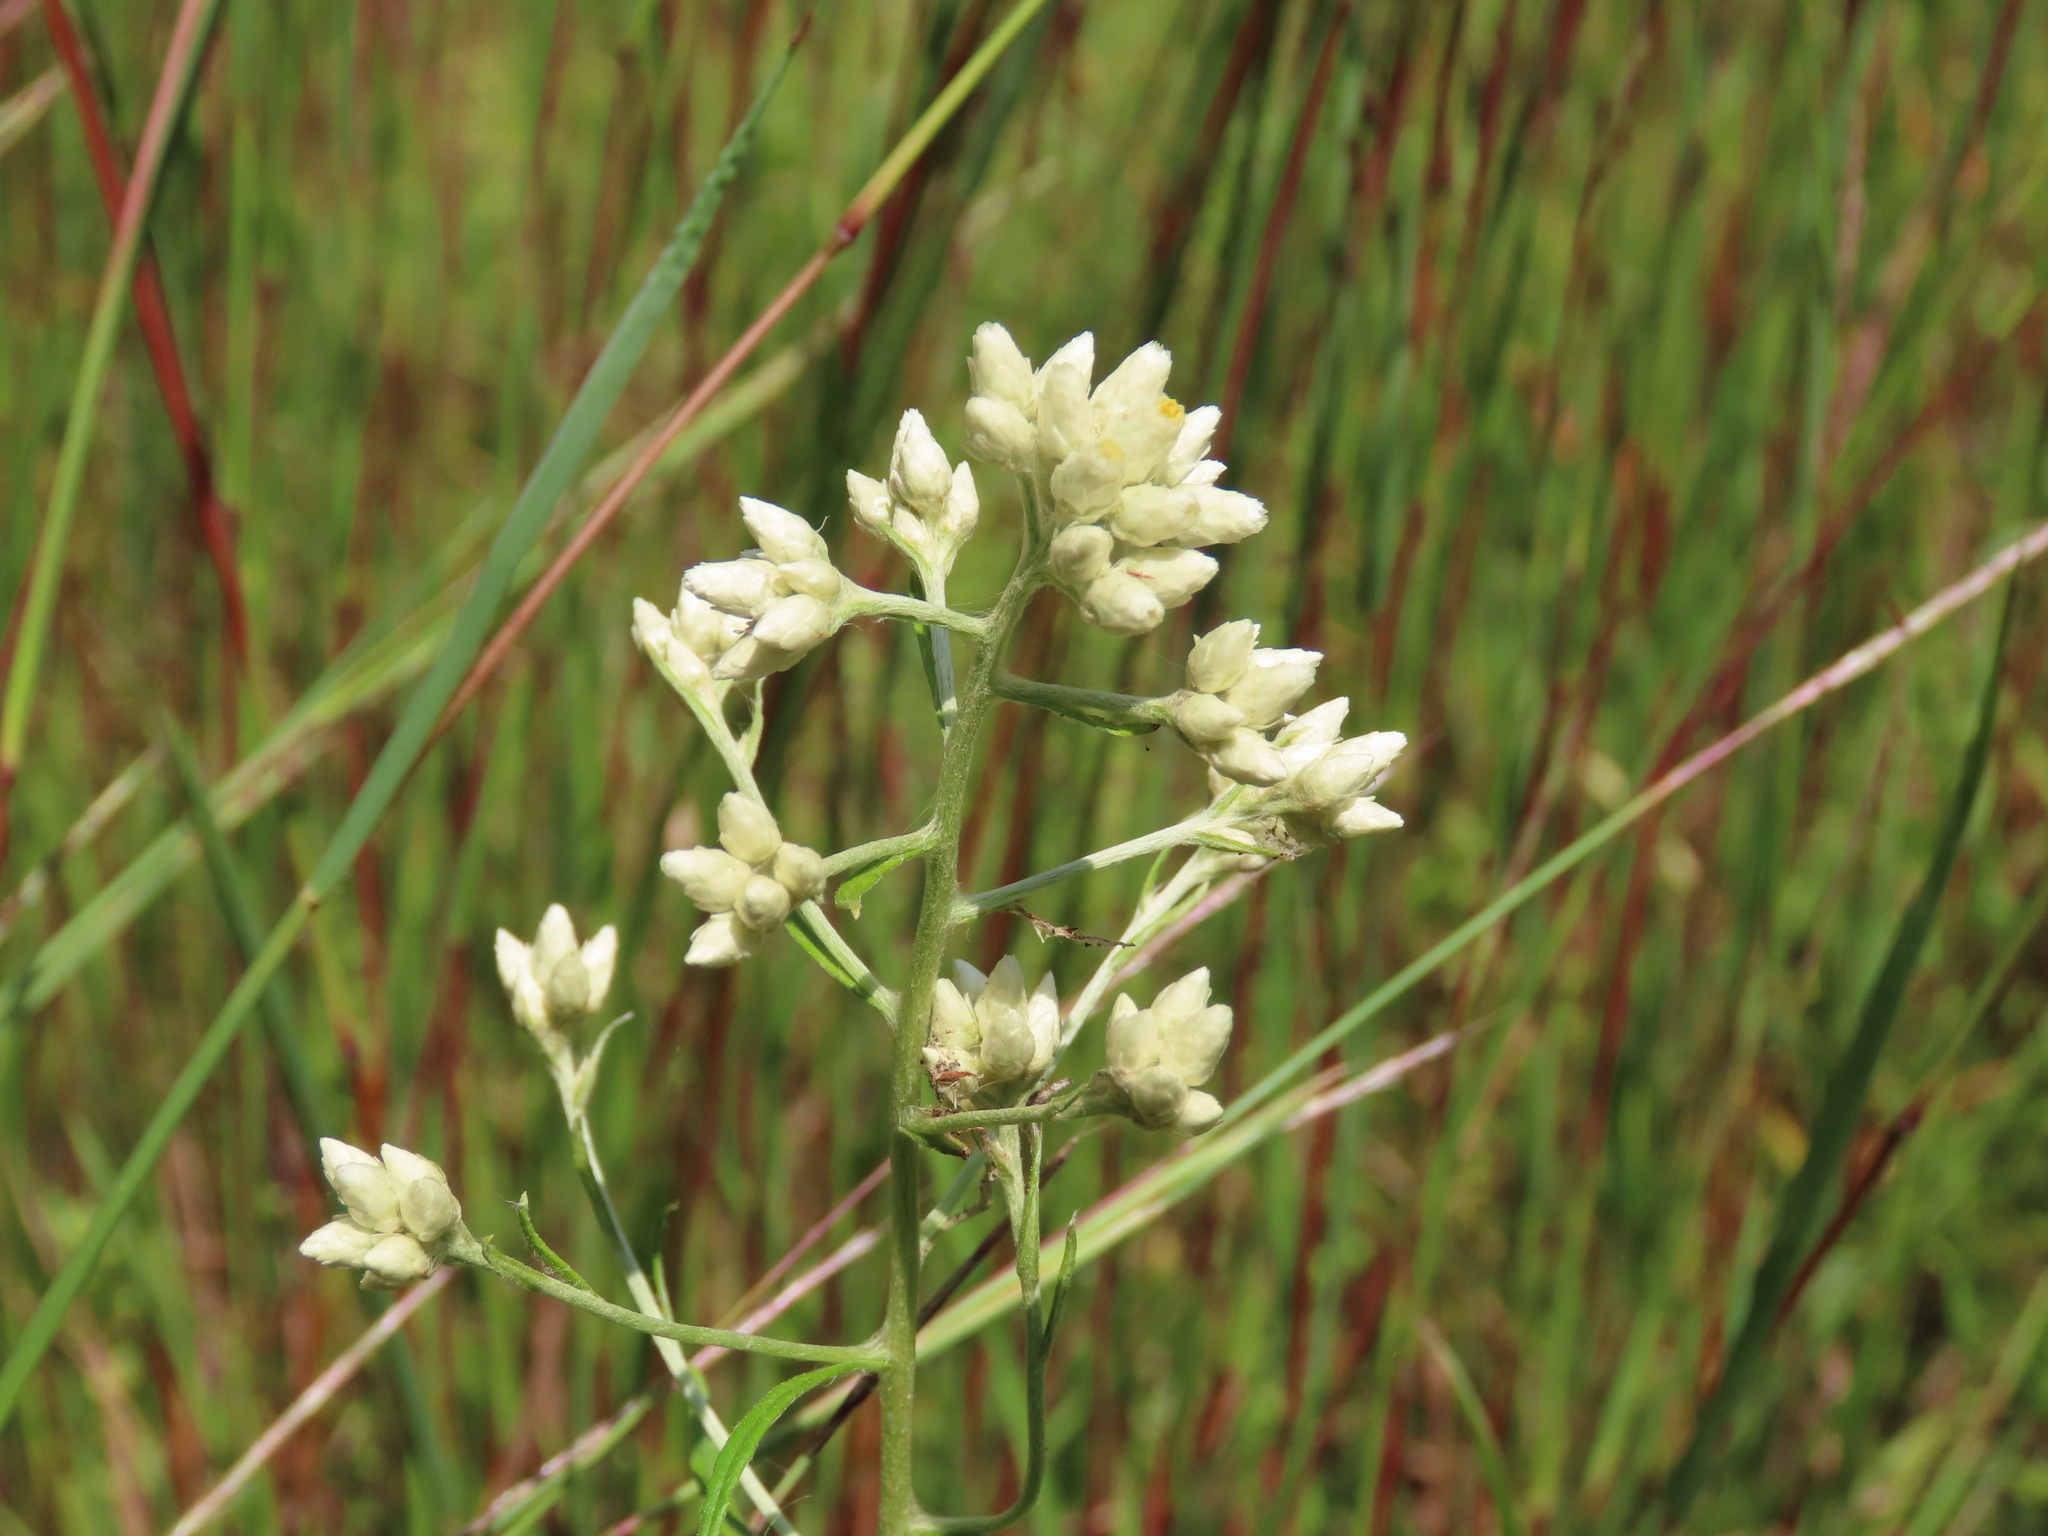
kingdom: Plantae
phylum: Tracheophyta
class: Magnoliopsida
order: Asterales
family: Asteraceae
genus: Pseudognaphalium
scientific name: Pseudognaphalium obtusifolium
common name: Eastern rabbit-tobacco
